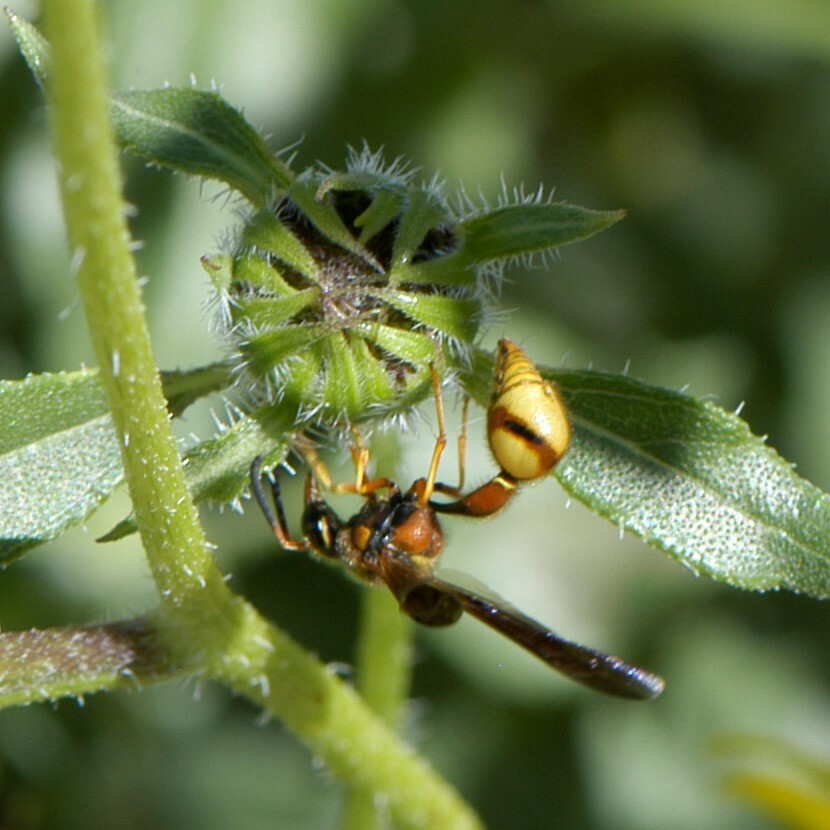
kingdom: Animalia
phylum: Arthropoda
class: Insecta
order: Hymenoptera
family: Vespidae
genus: Eumenes
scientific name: Eumenes bollii
